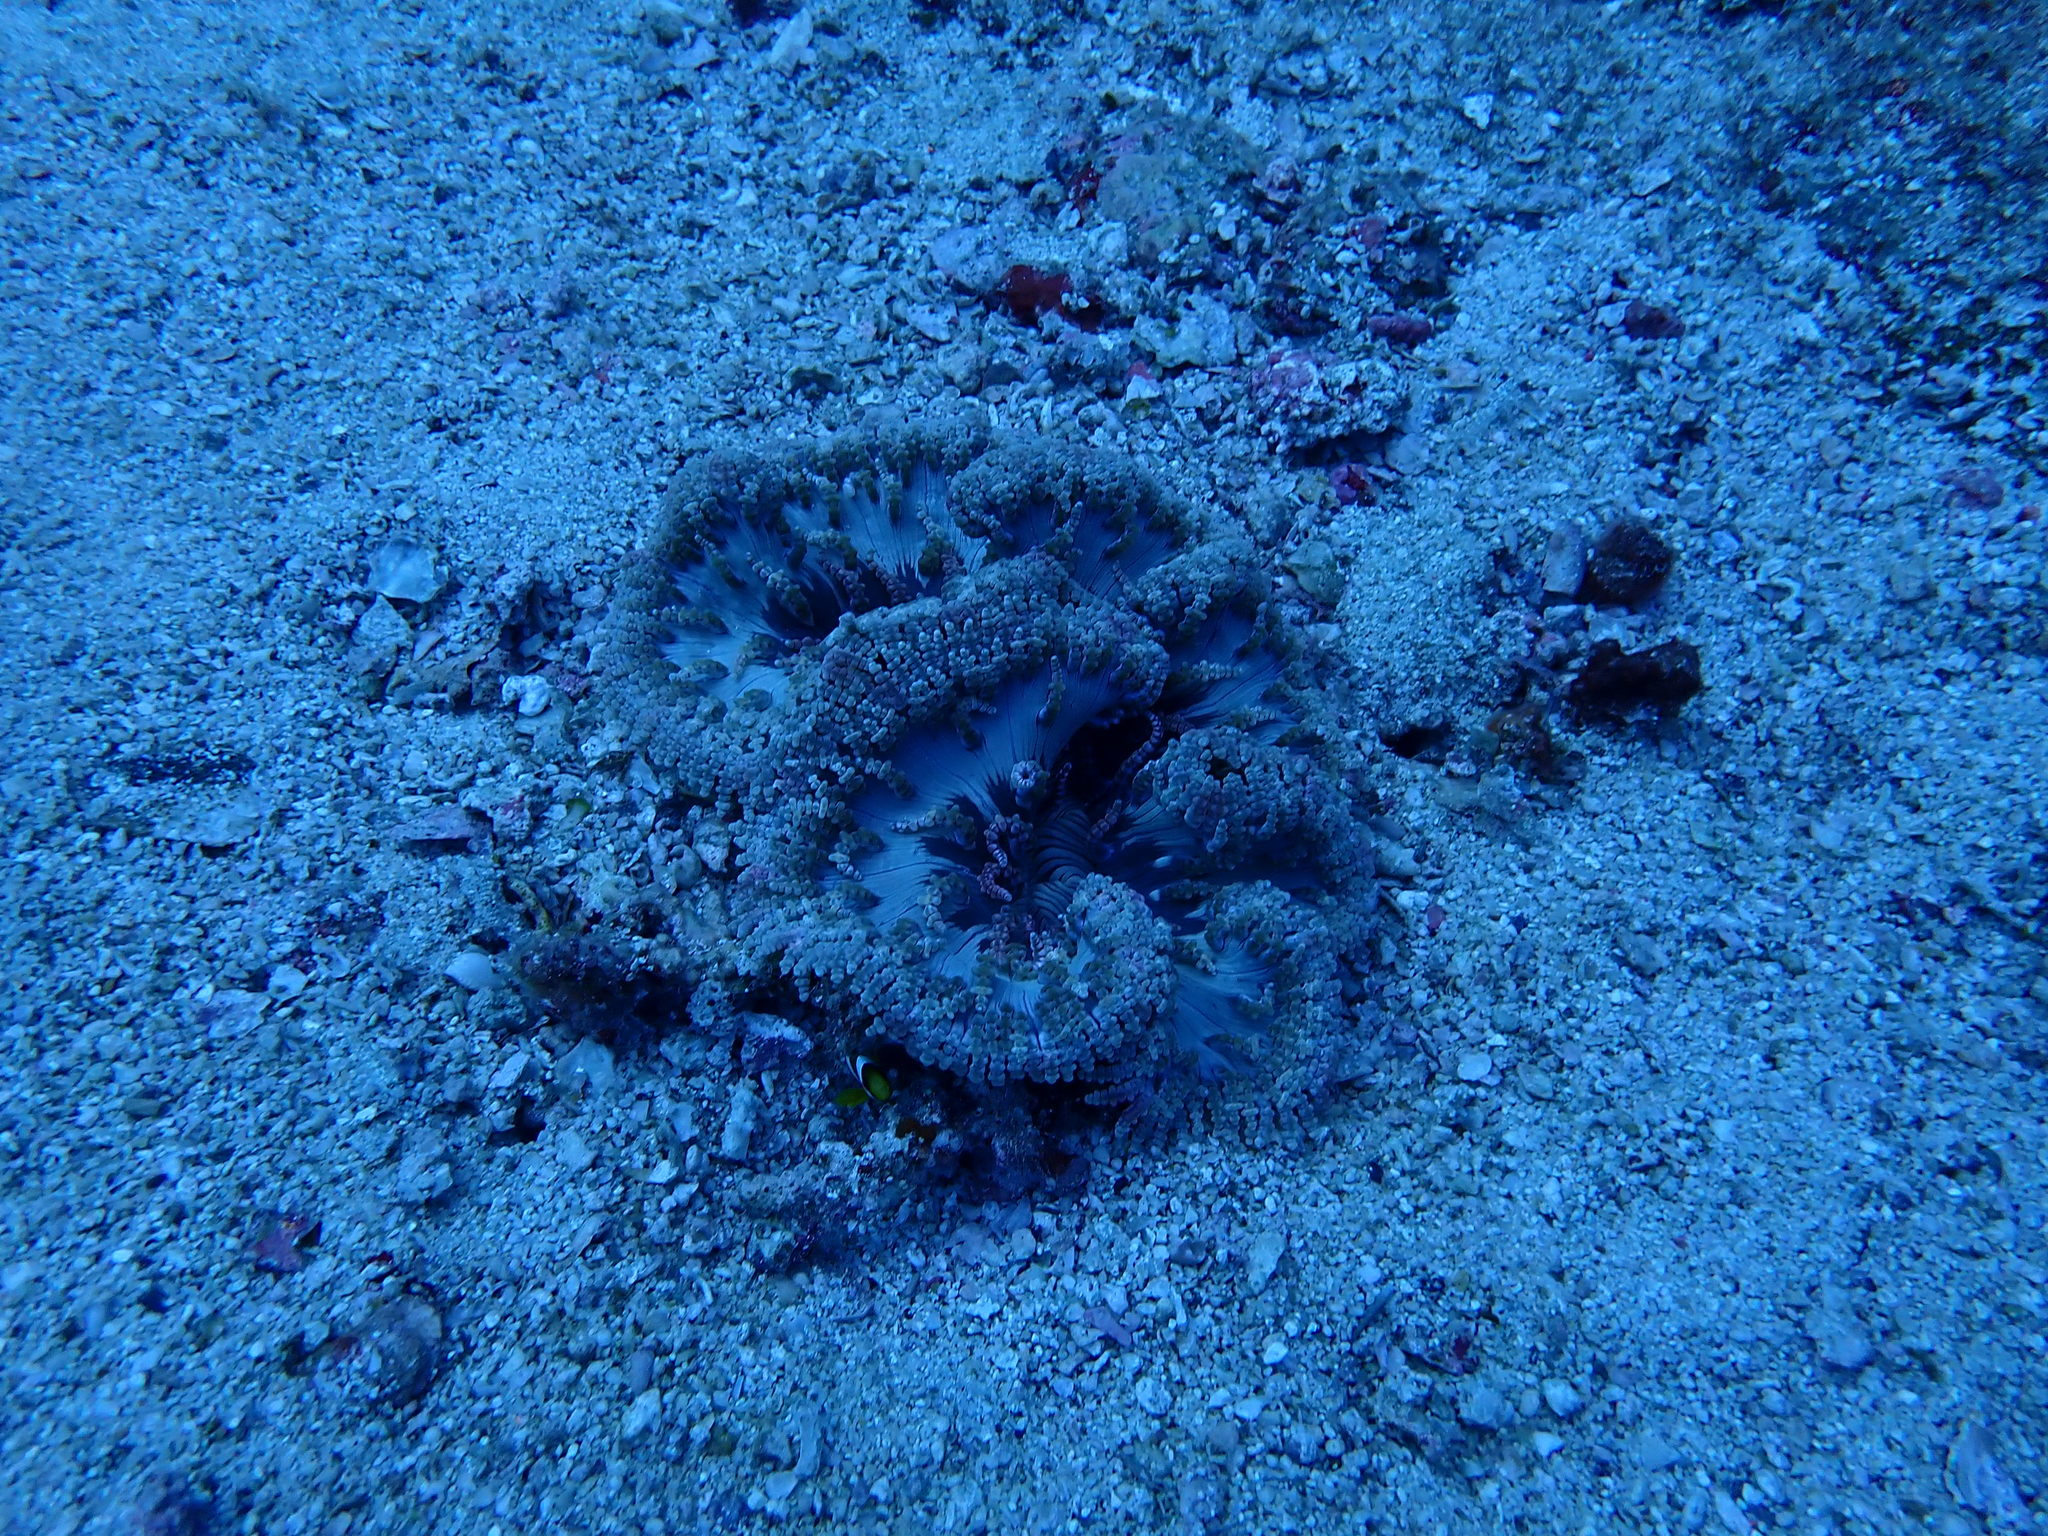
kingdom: Animalia
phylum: Cnidaria
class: Anthozoa
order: Actiniaria
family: Heteractidae
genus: Heteractis
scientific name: Heteractis aurora
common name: Beaded sea anemone
